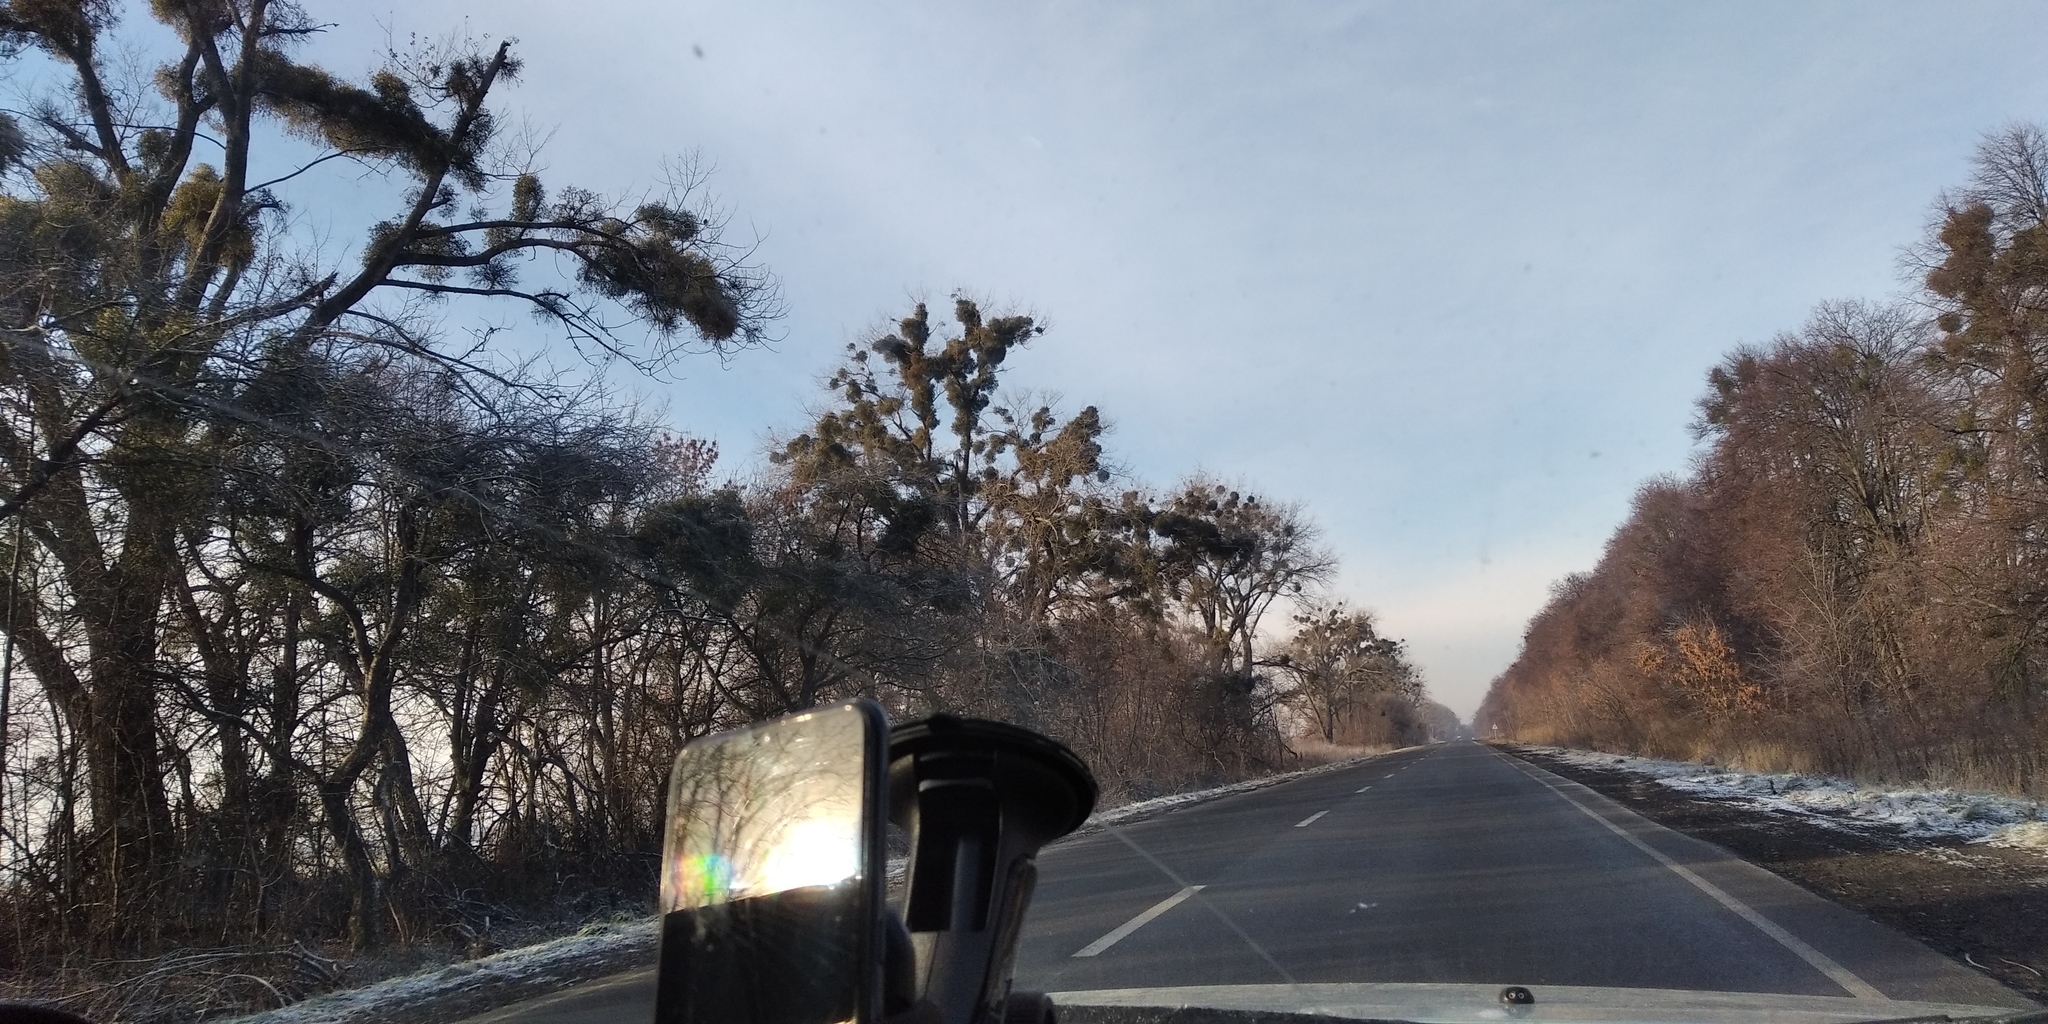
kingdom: Plantae
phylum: Tracheophyta
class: Magnoliopsida
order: Santalales
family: Viscaceae
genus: Viscum
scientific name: Viscum album
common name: Mistletoe
